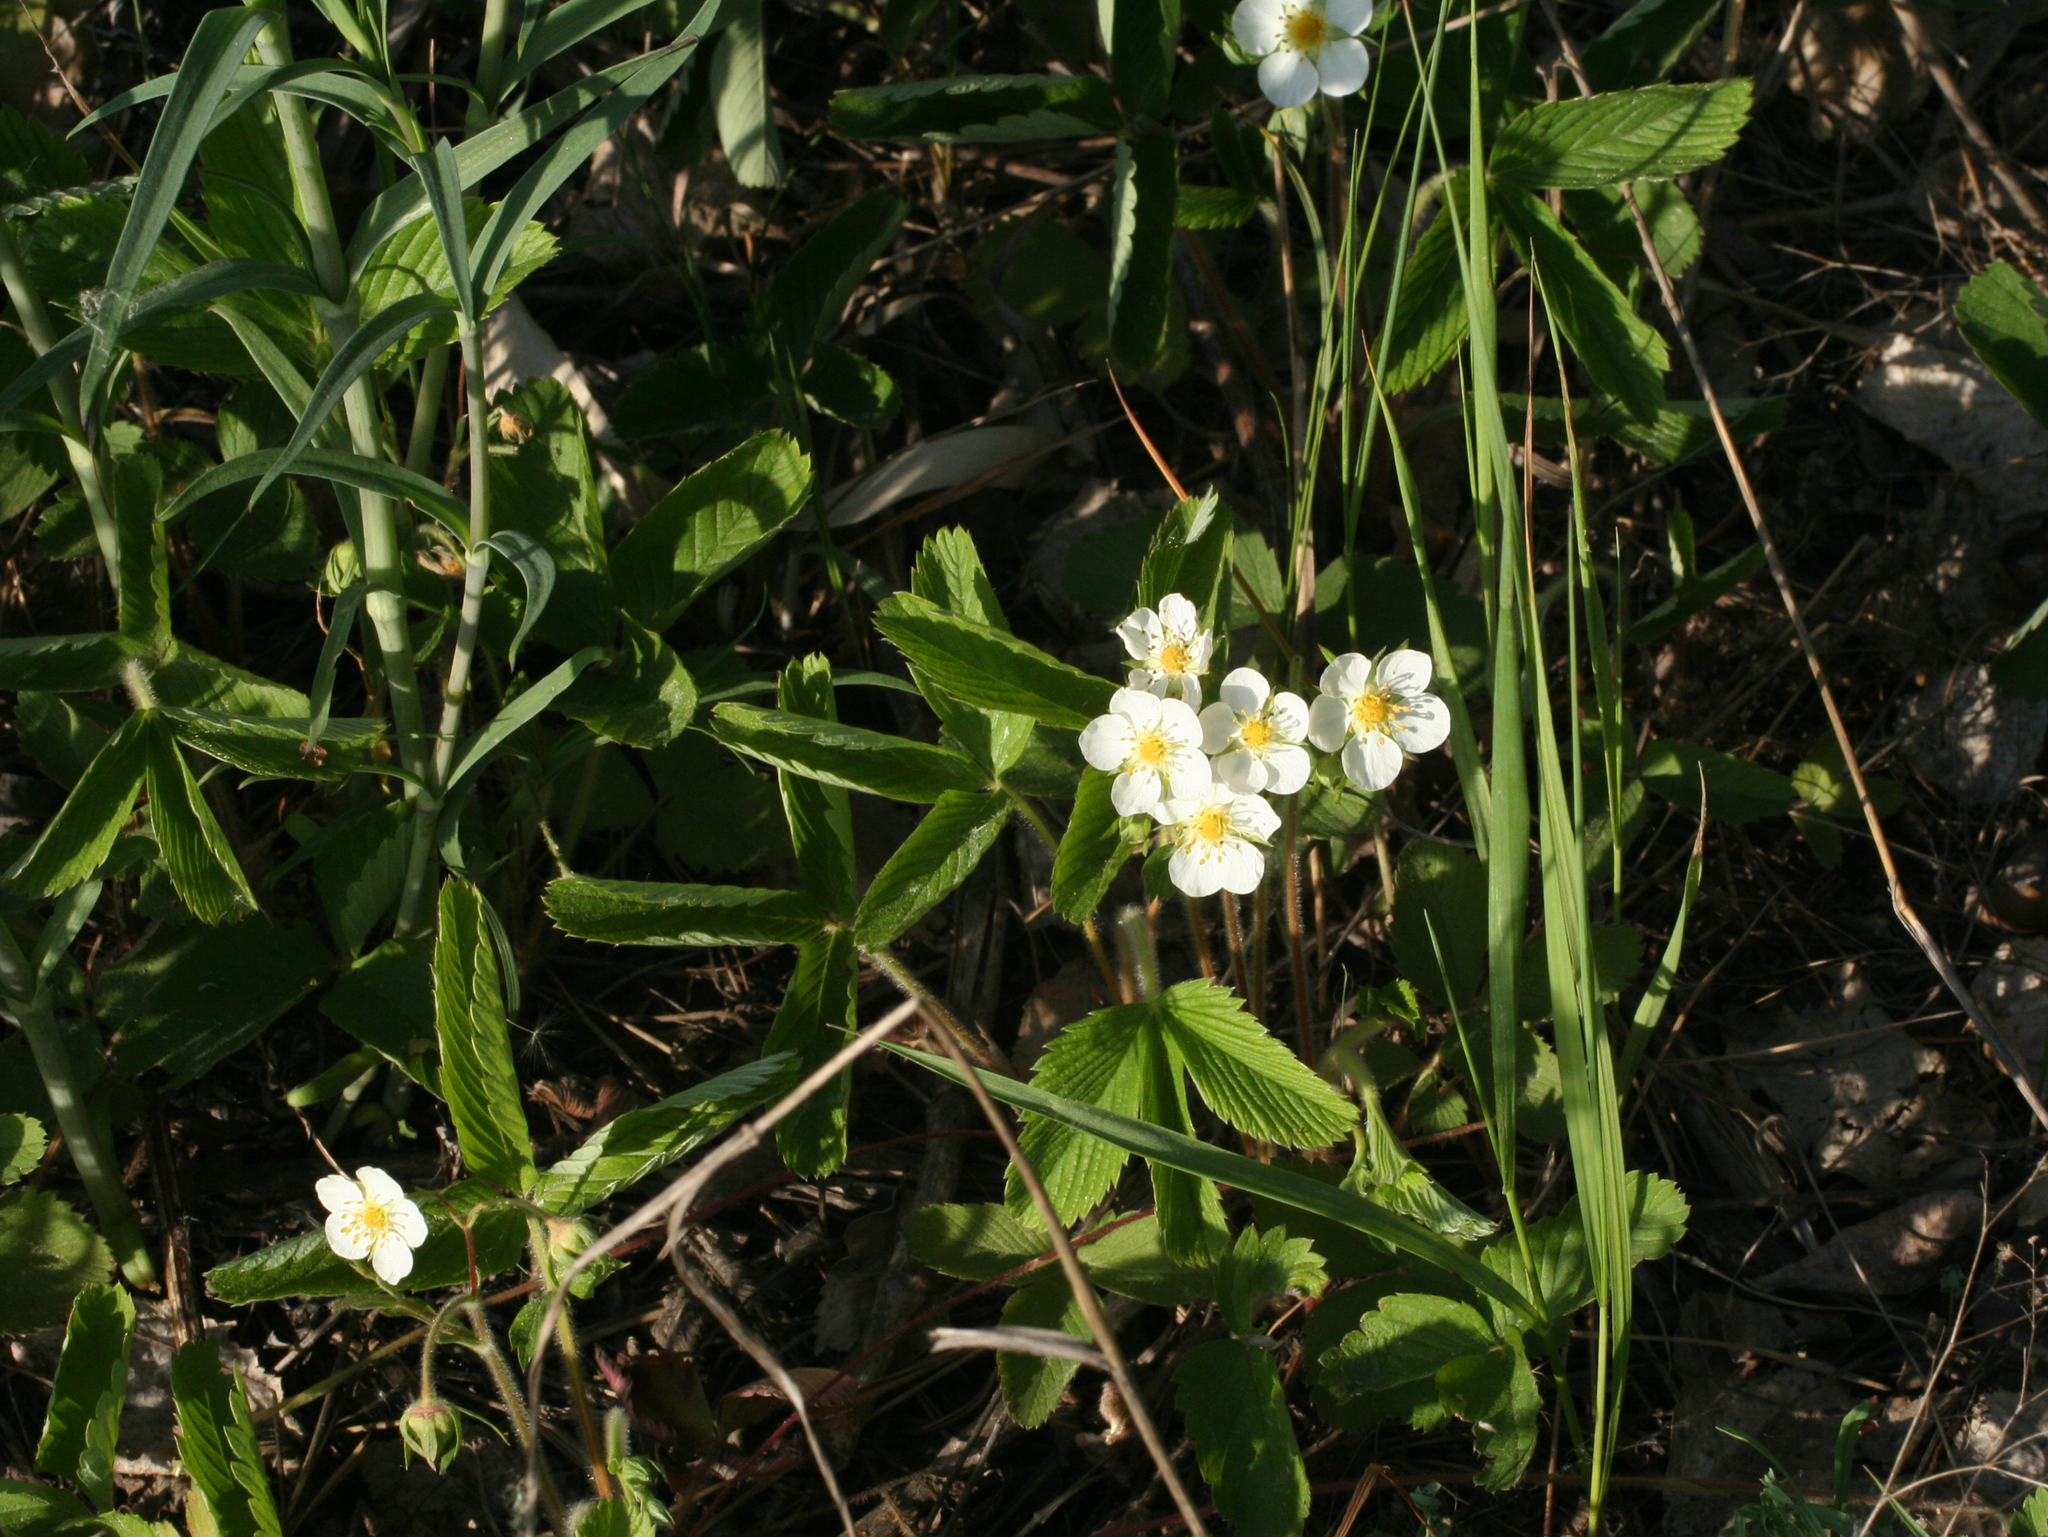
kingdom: Plantae
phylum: Tracheophyta
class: Magnoliopsida
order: Rosales
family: Rosaceae
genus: Fragaria
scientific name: Fragaria viridis
